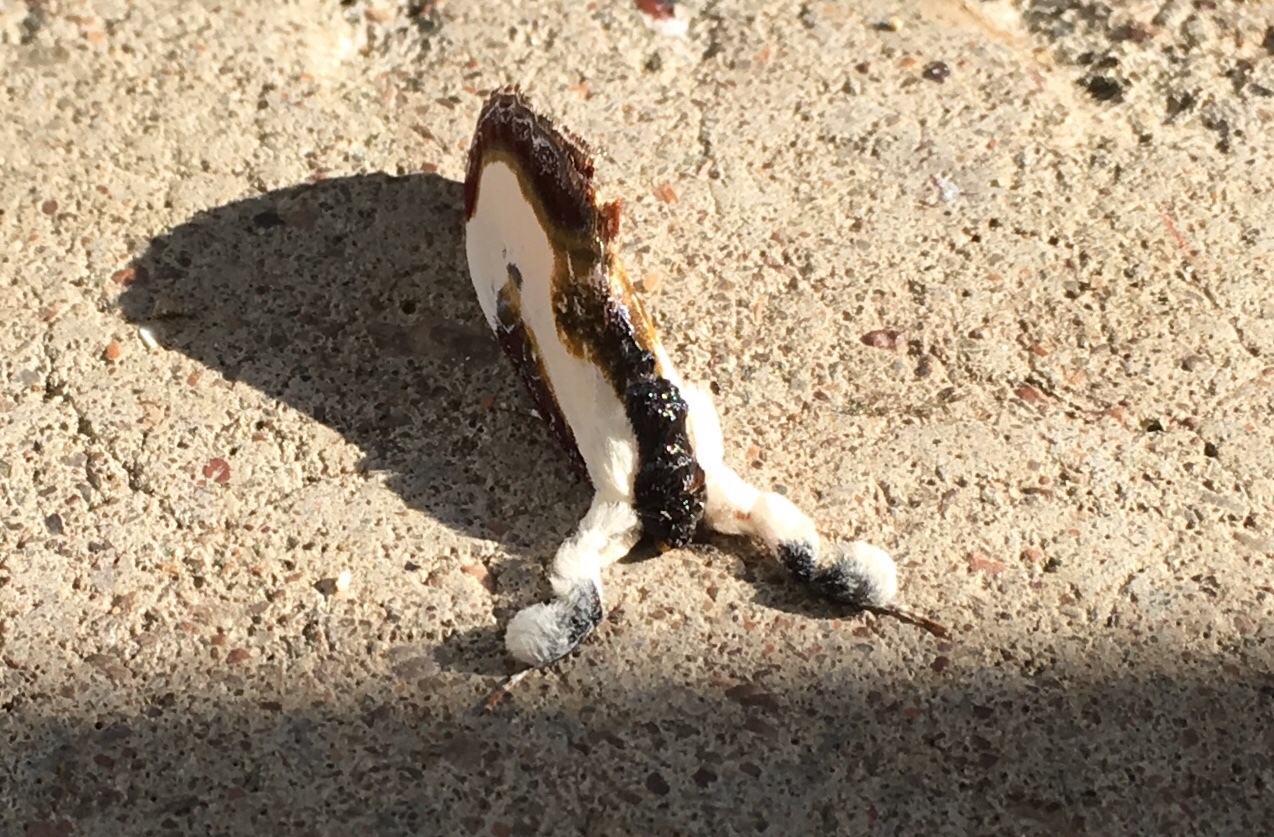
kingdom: Animalia
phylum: Arthropoda
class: Insecta
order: Lepidoptera
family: Noctuidae
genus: Eudryas
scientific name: Eudryas grata
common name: Beautiful wood-nymph
